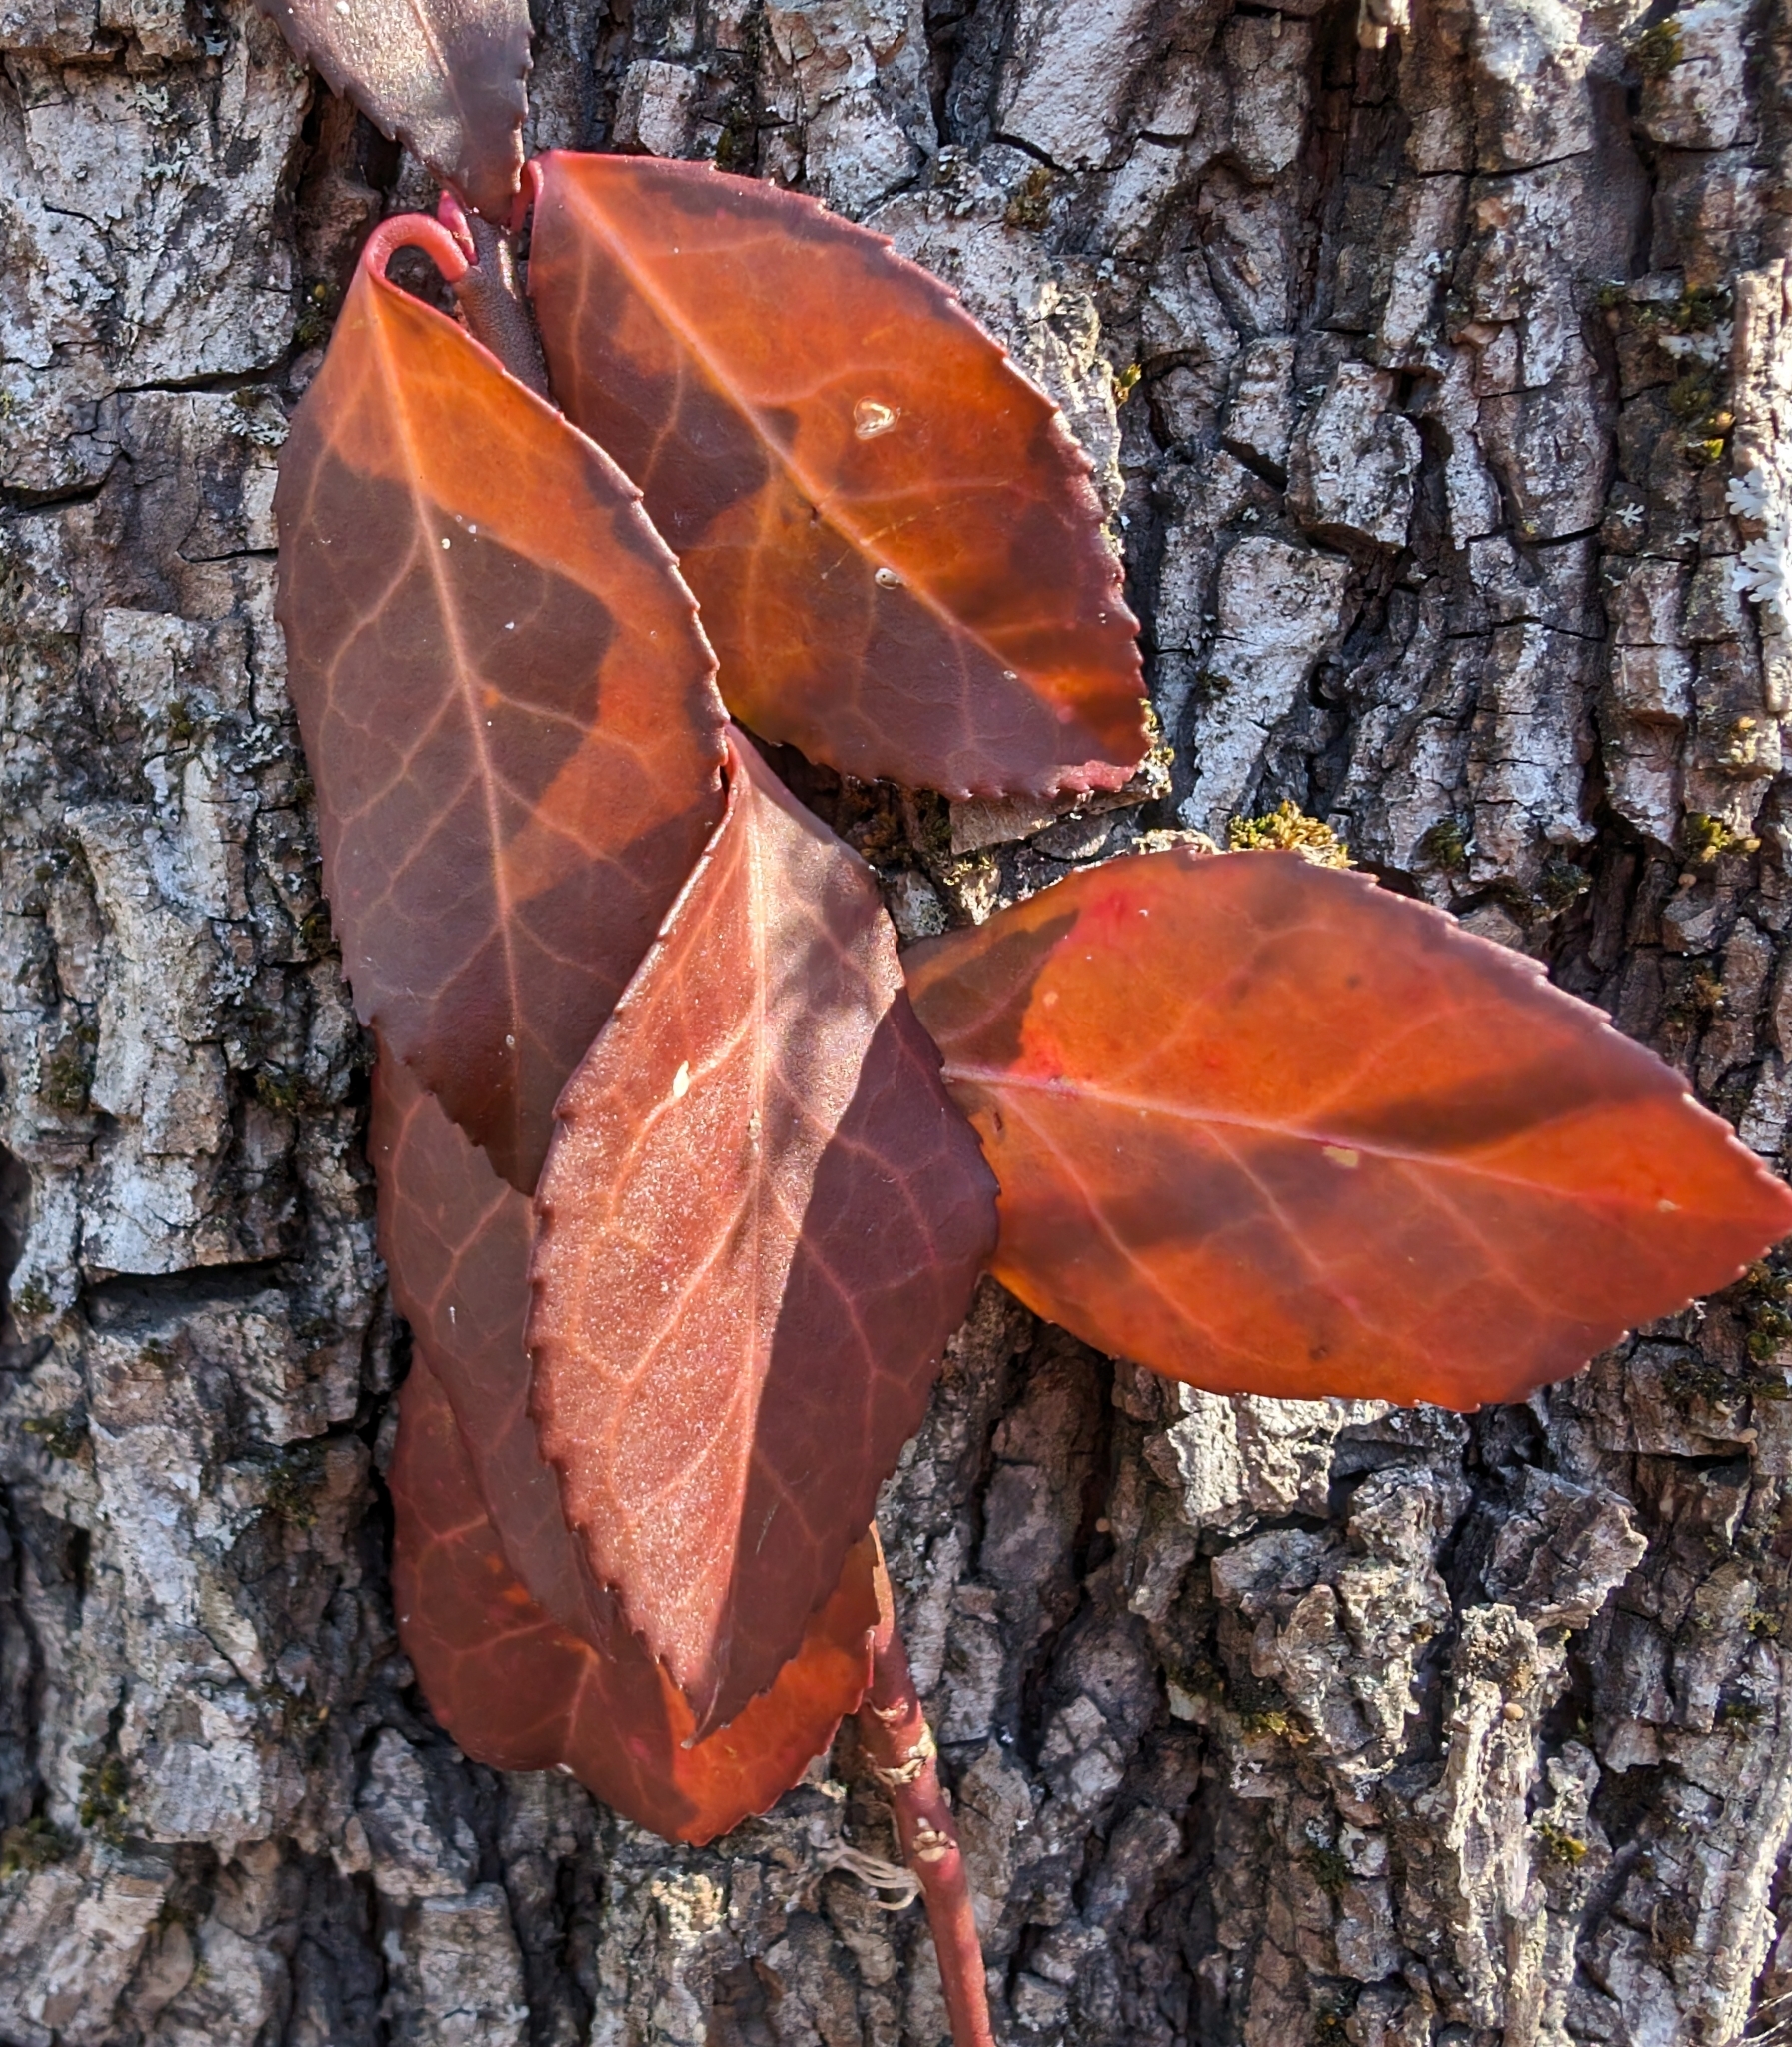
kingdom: Plantae
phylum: Tracheophyta
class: Magnoliopsida
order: Celastrales
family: Celastraceae
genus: Euonymus
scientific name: Euonymus fortunei
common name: Climbing euonymus
